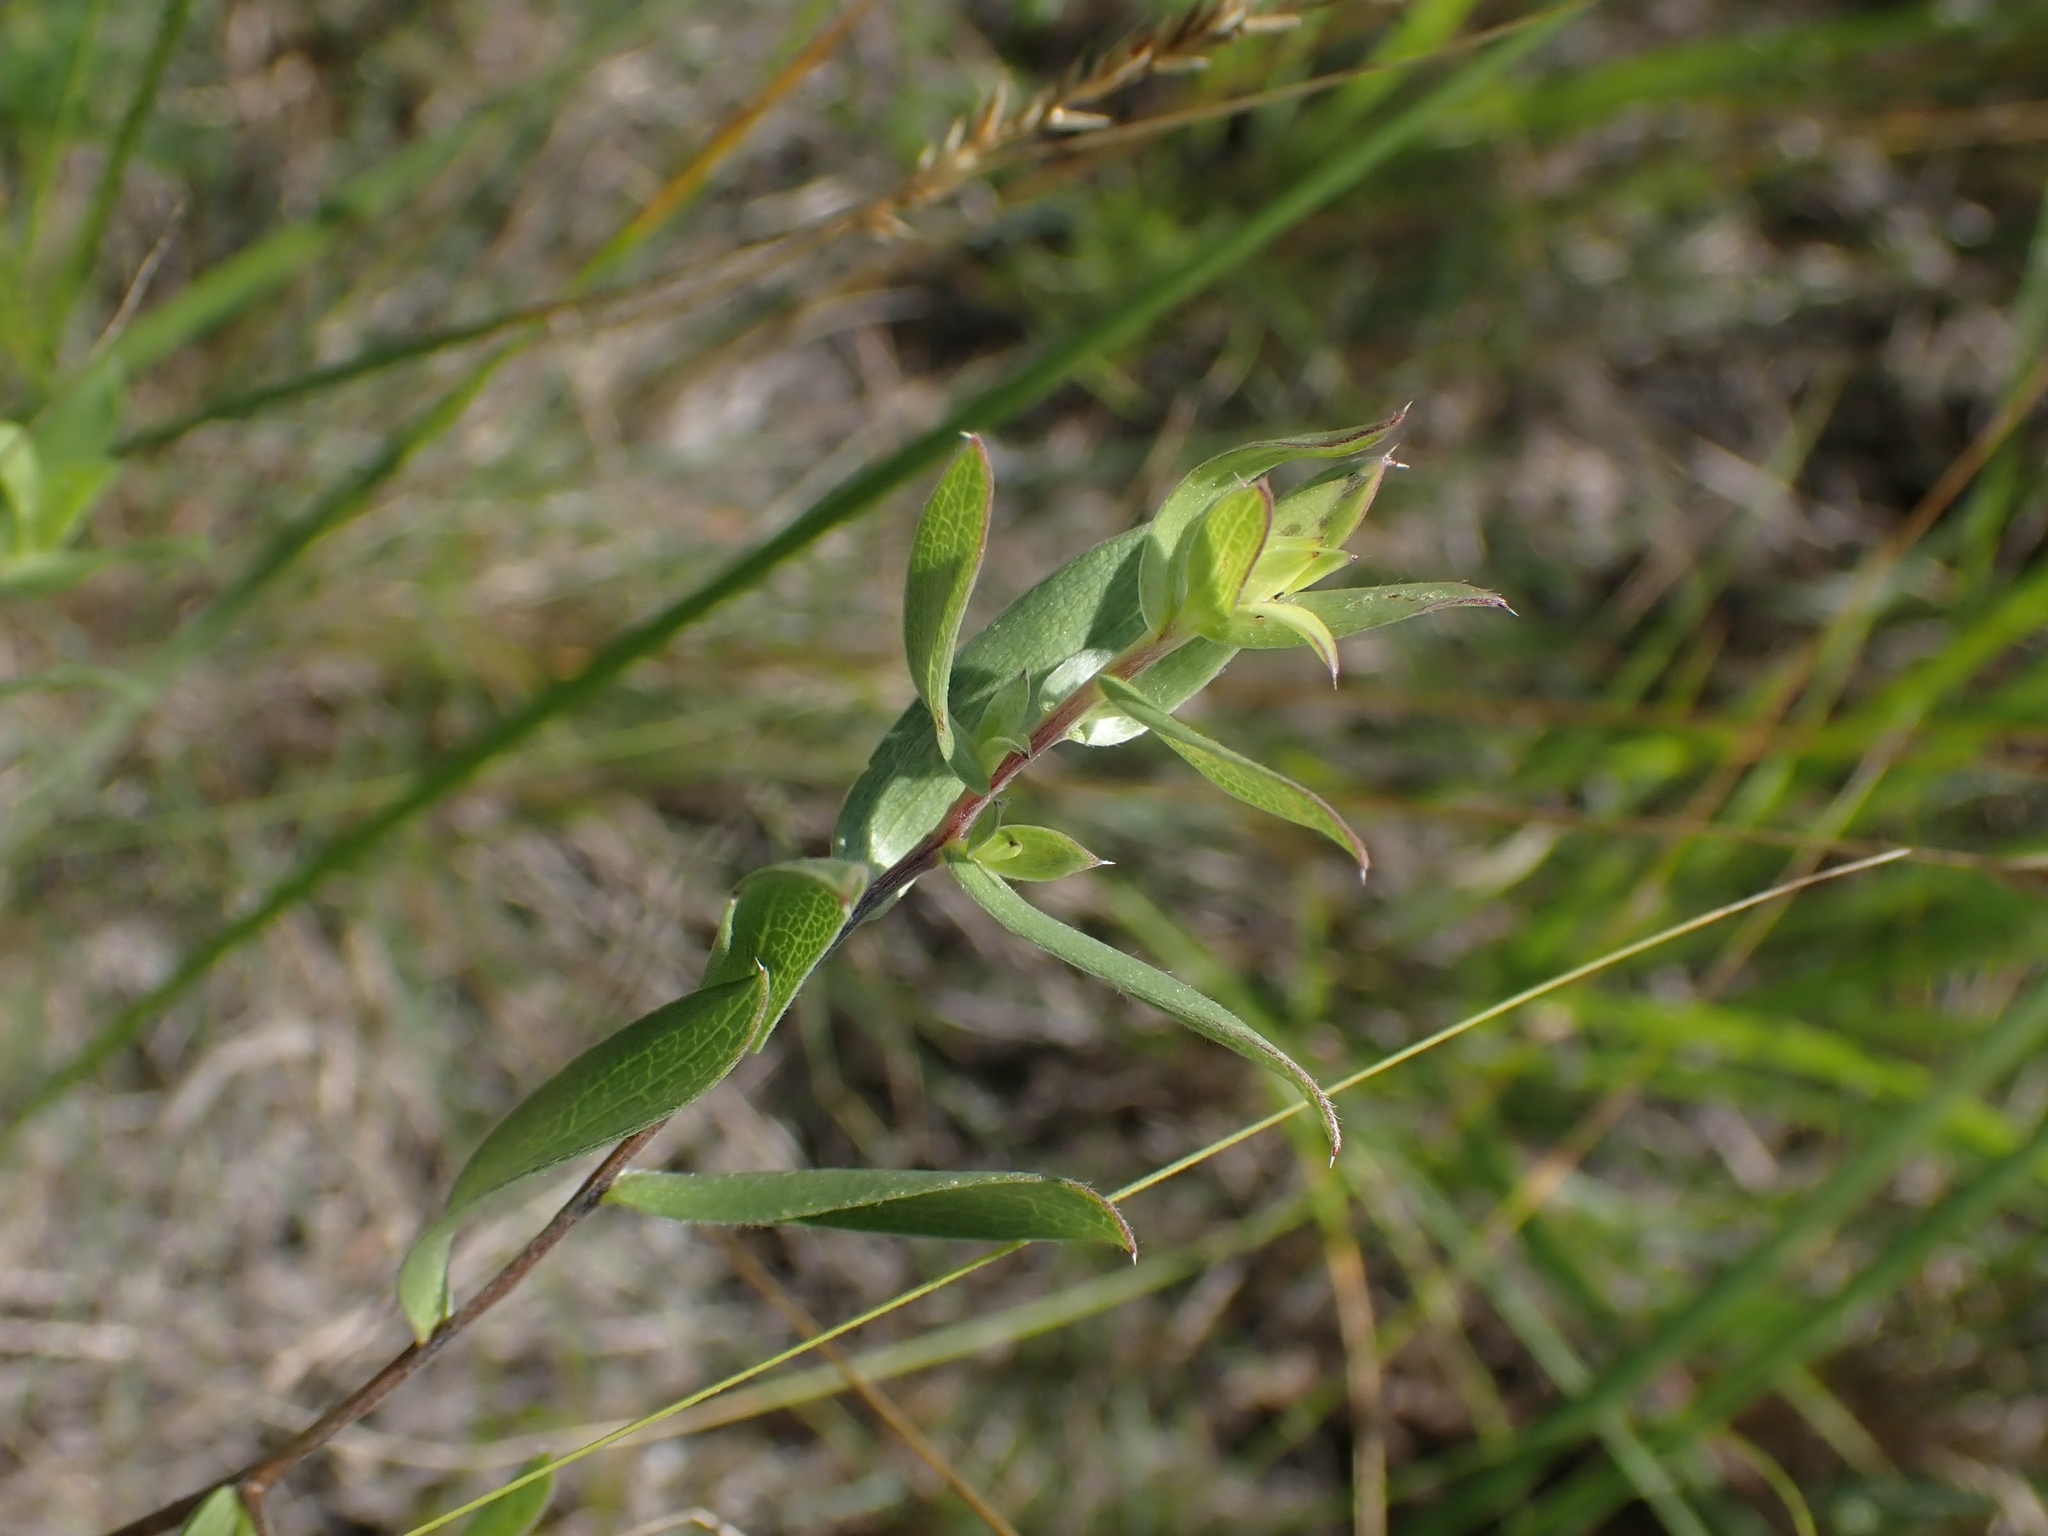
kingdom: Plantae
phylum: Tracheophyta
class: Magnoliopsida
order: Asterales
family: Asteraceae
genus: Symphyotrichum
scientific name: Symphyotrichum sericeum
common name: Silky aster
